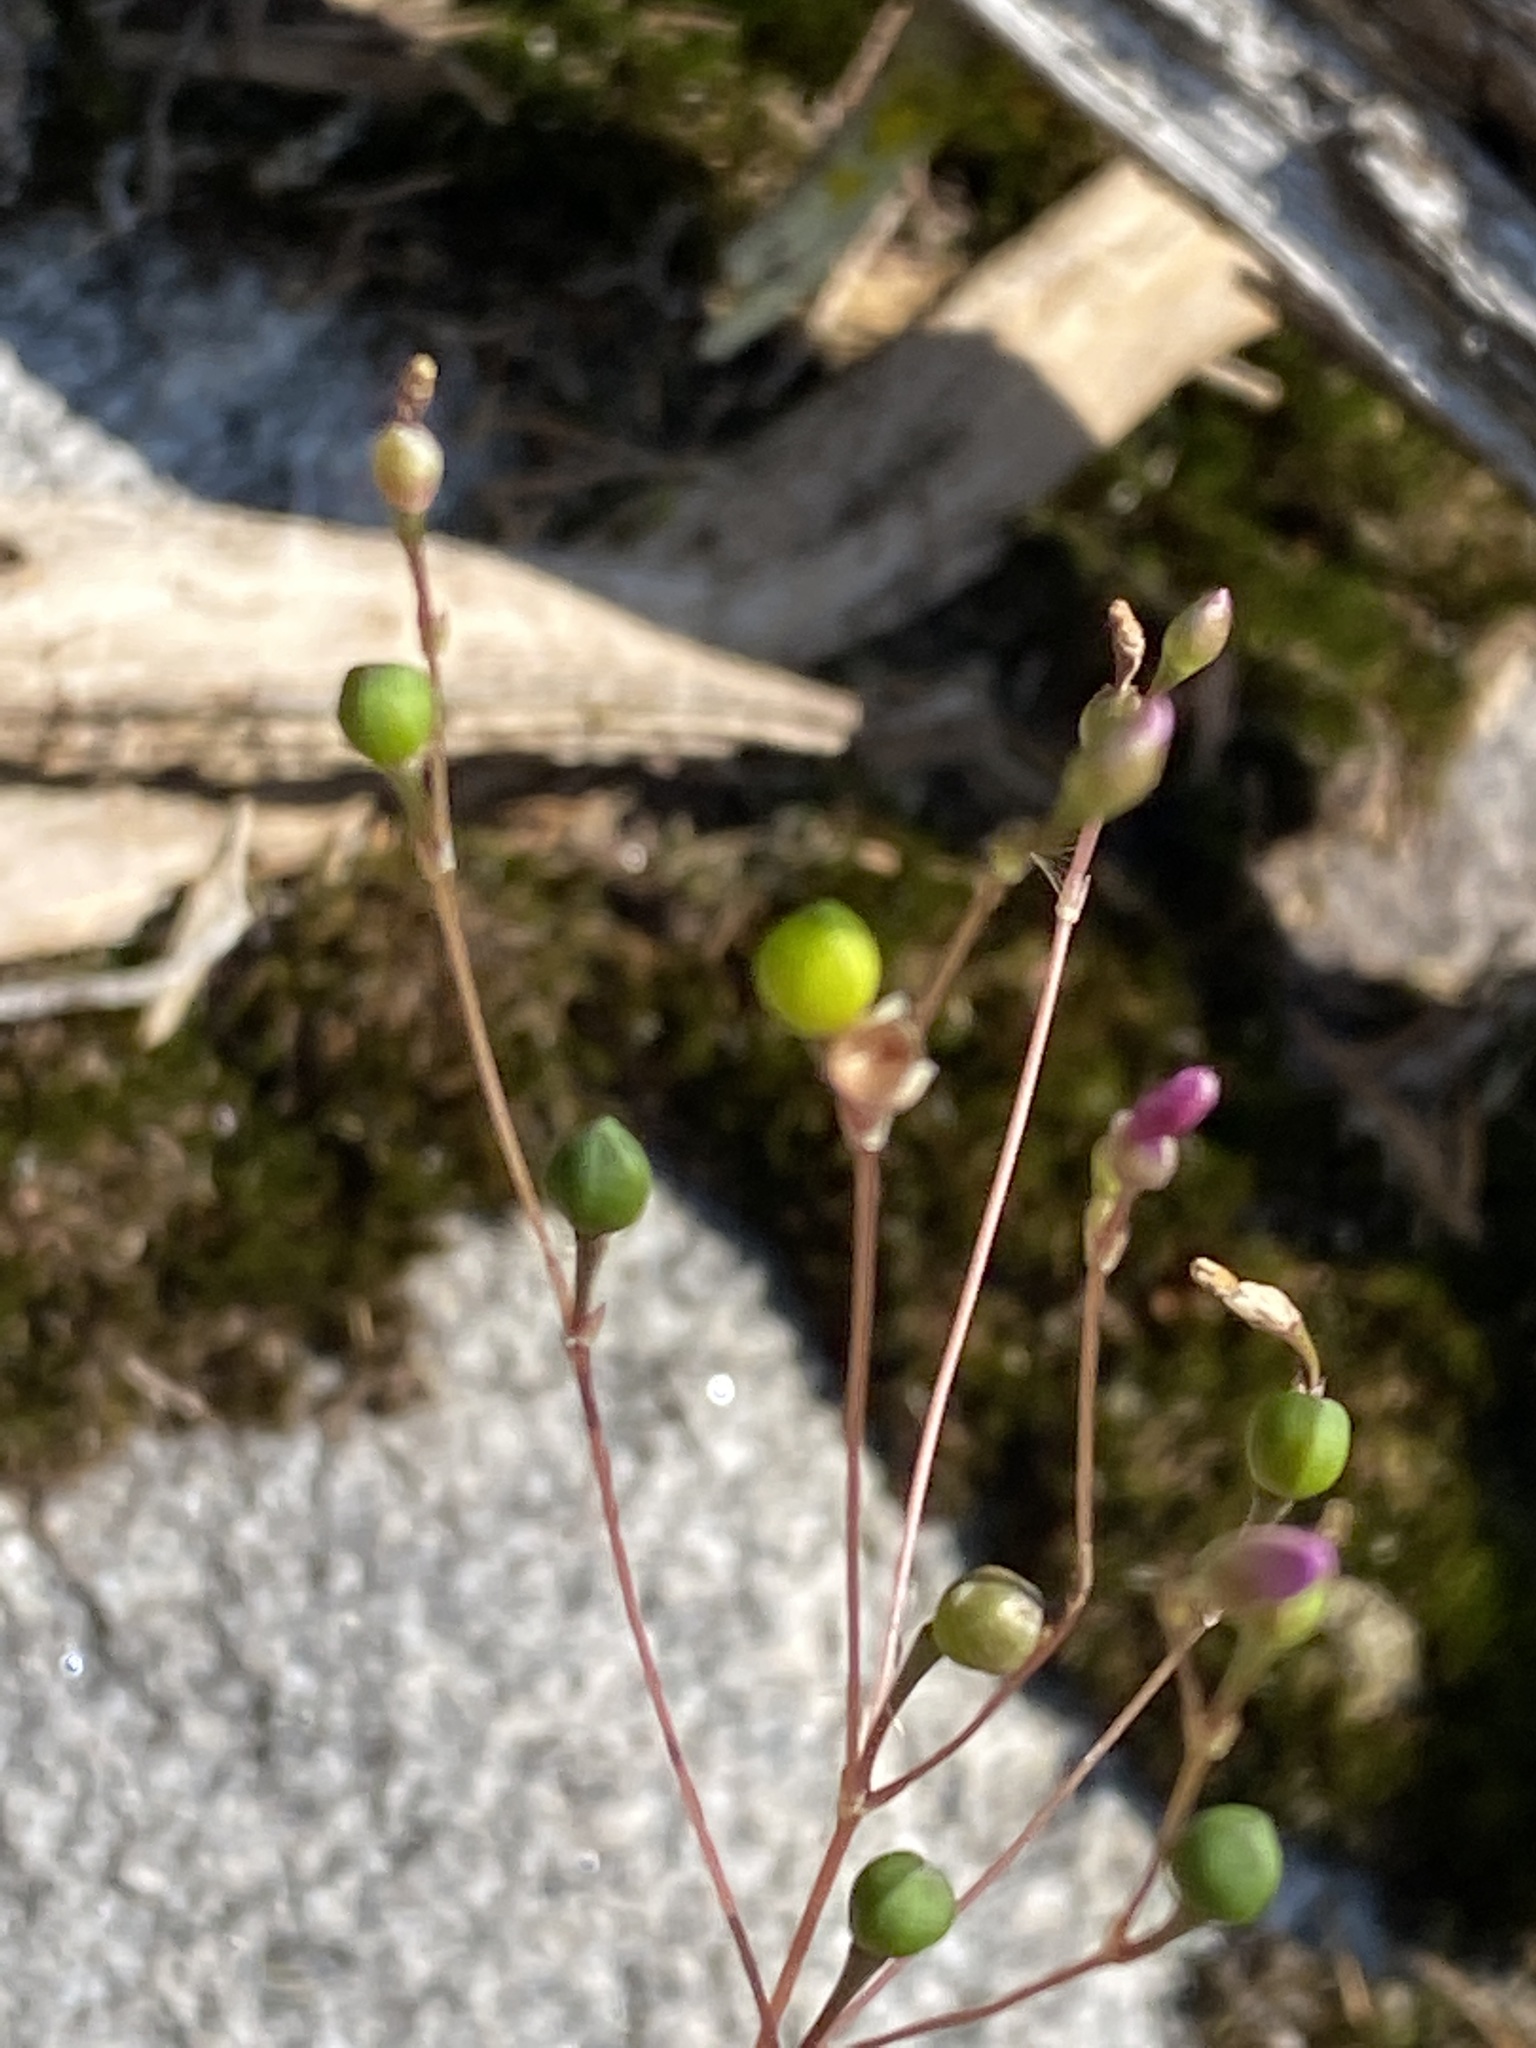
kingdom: Plantae
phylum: Tracheophyta
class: Magnoliopsida
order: Caryophyllales
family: Montiaceae
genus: Phemeranthus
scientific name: Phemeranthus teretifolius
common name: Quill fameflower
